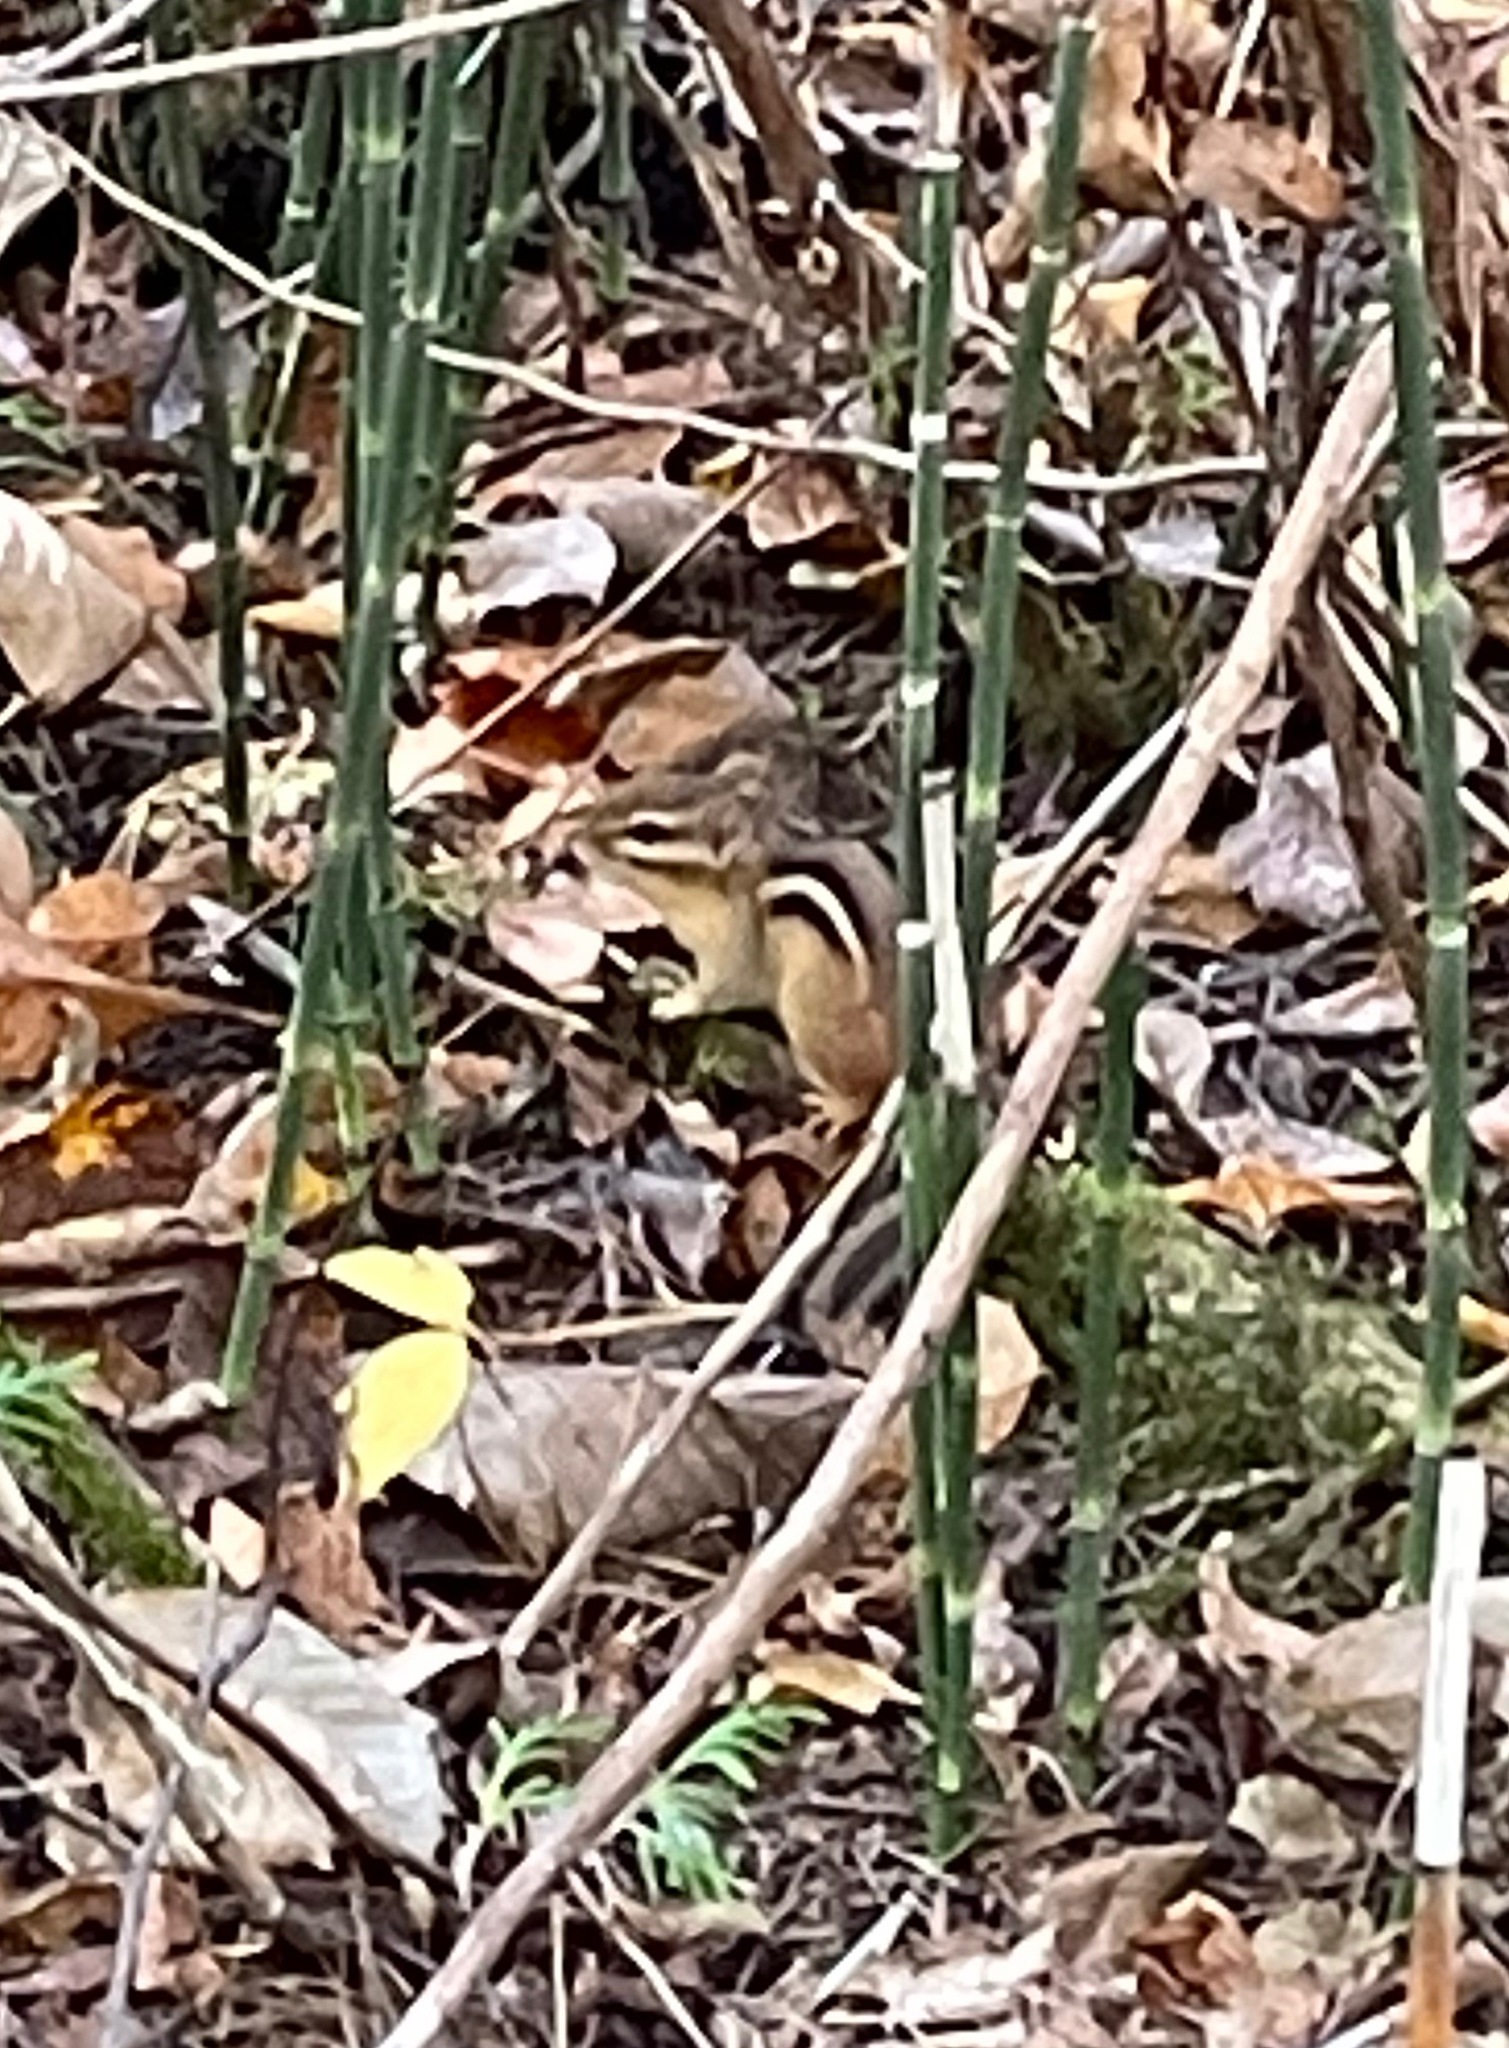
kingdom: Animalia
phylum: Chordata
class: Mammalia
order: Rodentia
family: Sciuridae
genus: Tamias
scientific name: Tamias striatus
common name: Eastern chipmunk
